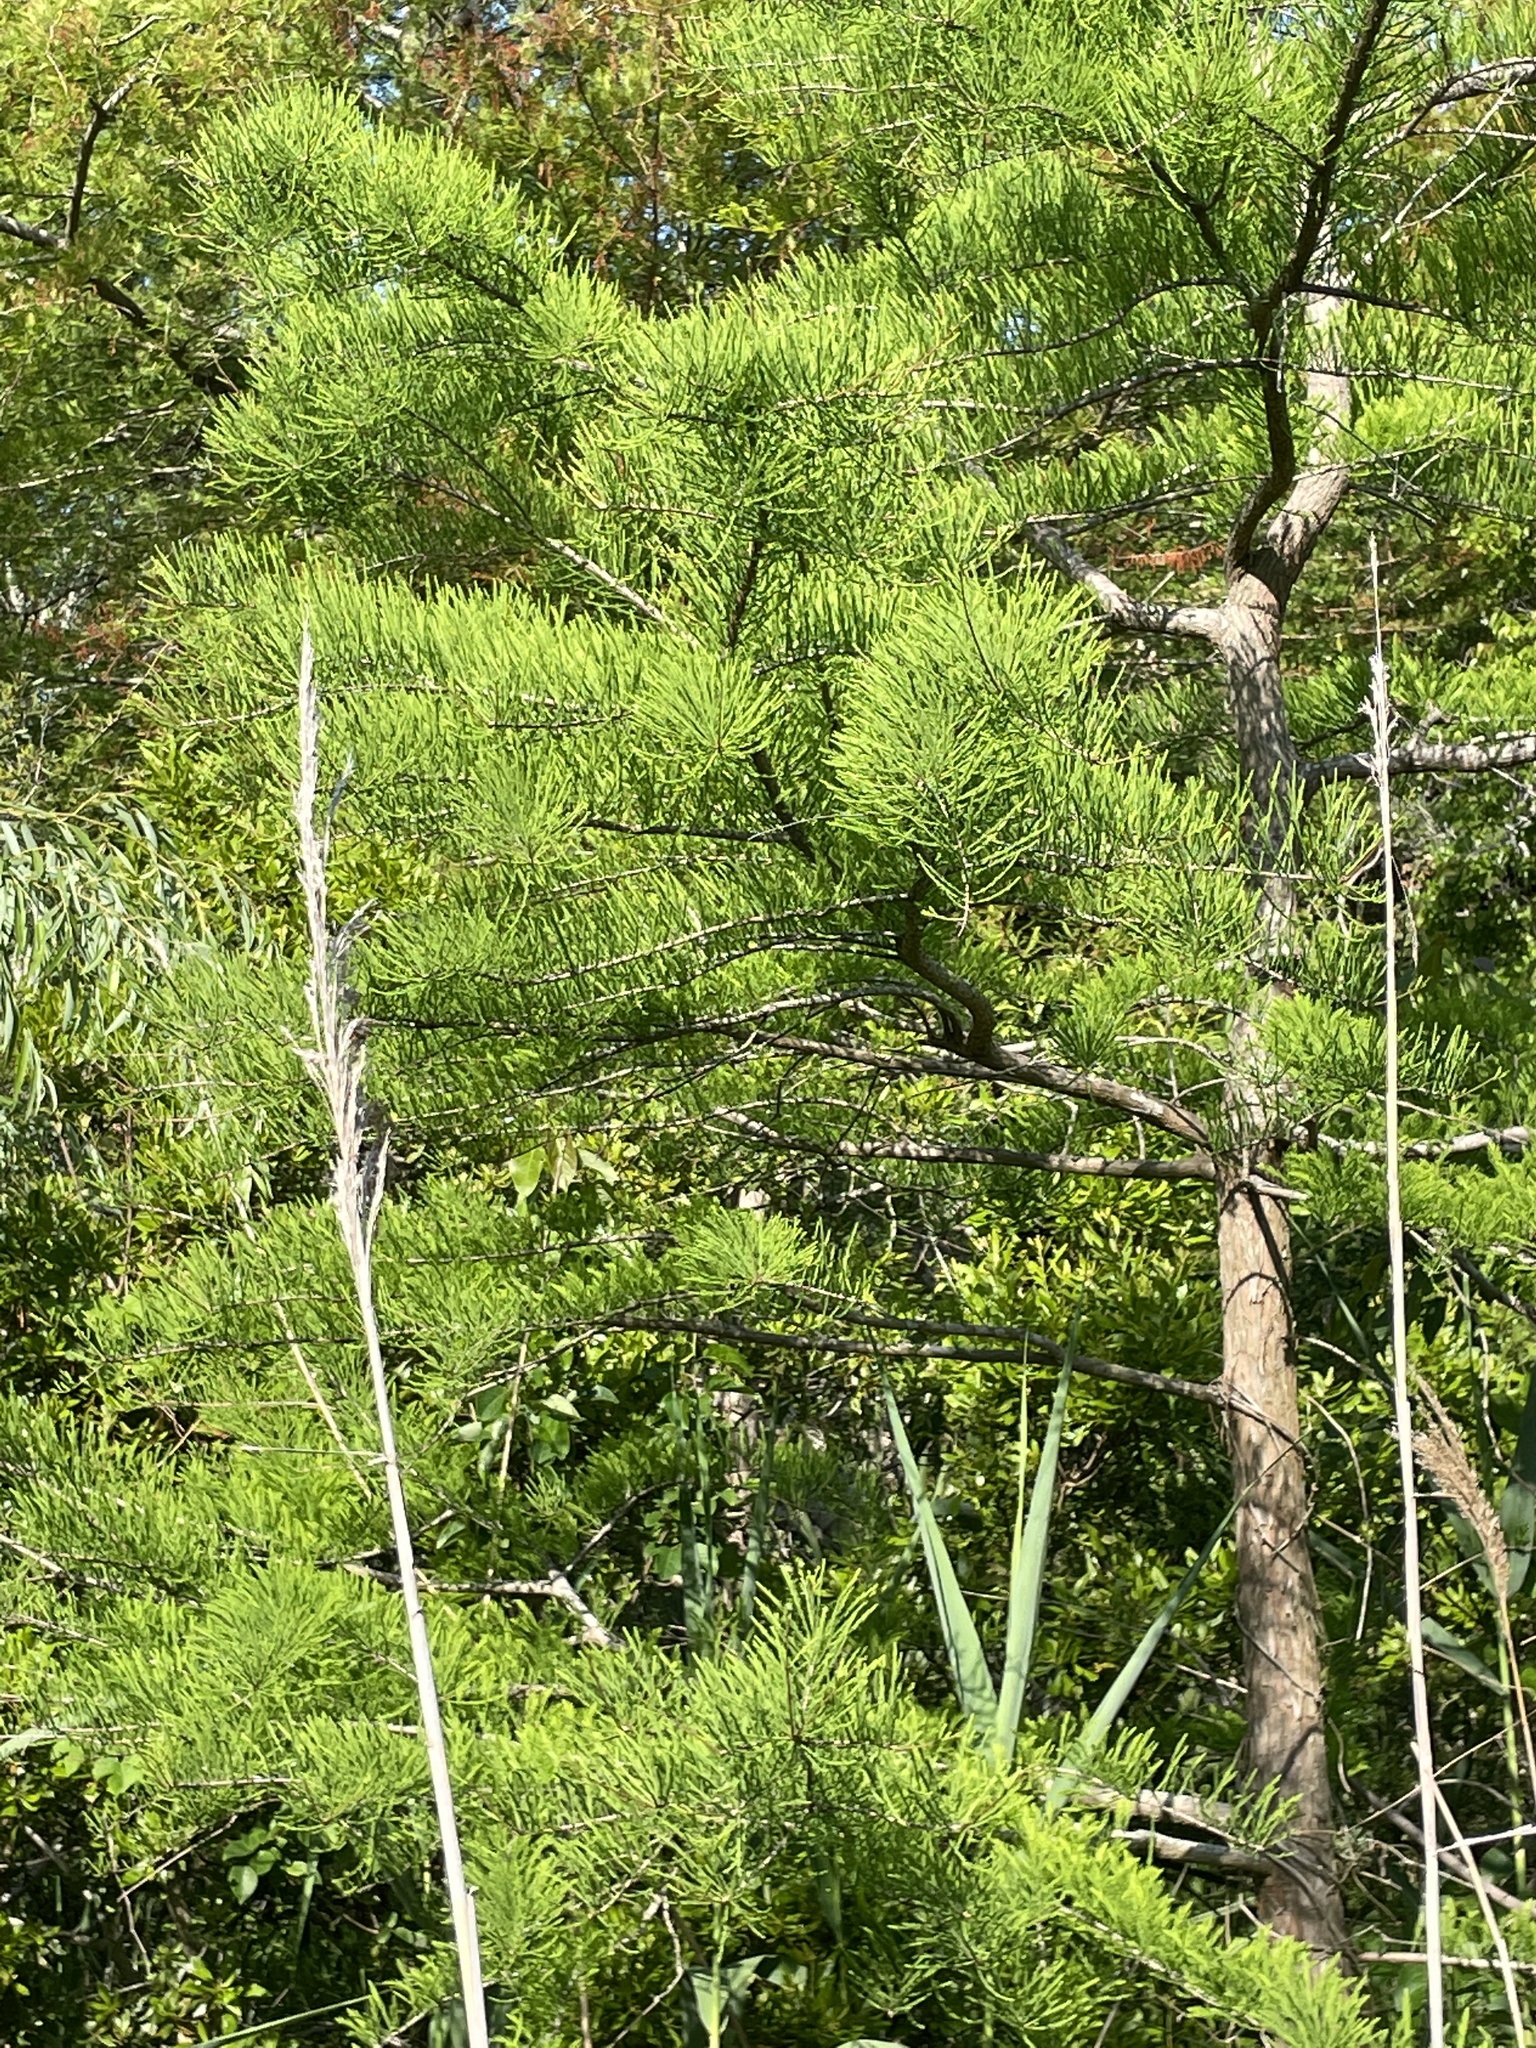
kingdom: Plantae
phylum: Tracheophyta
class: Pinopsida
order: Pinales
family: Cupressaceae
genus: Taxodium
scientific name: Taxodium distichum
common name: Bald cypress
